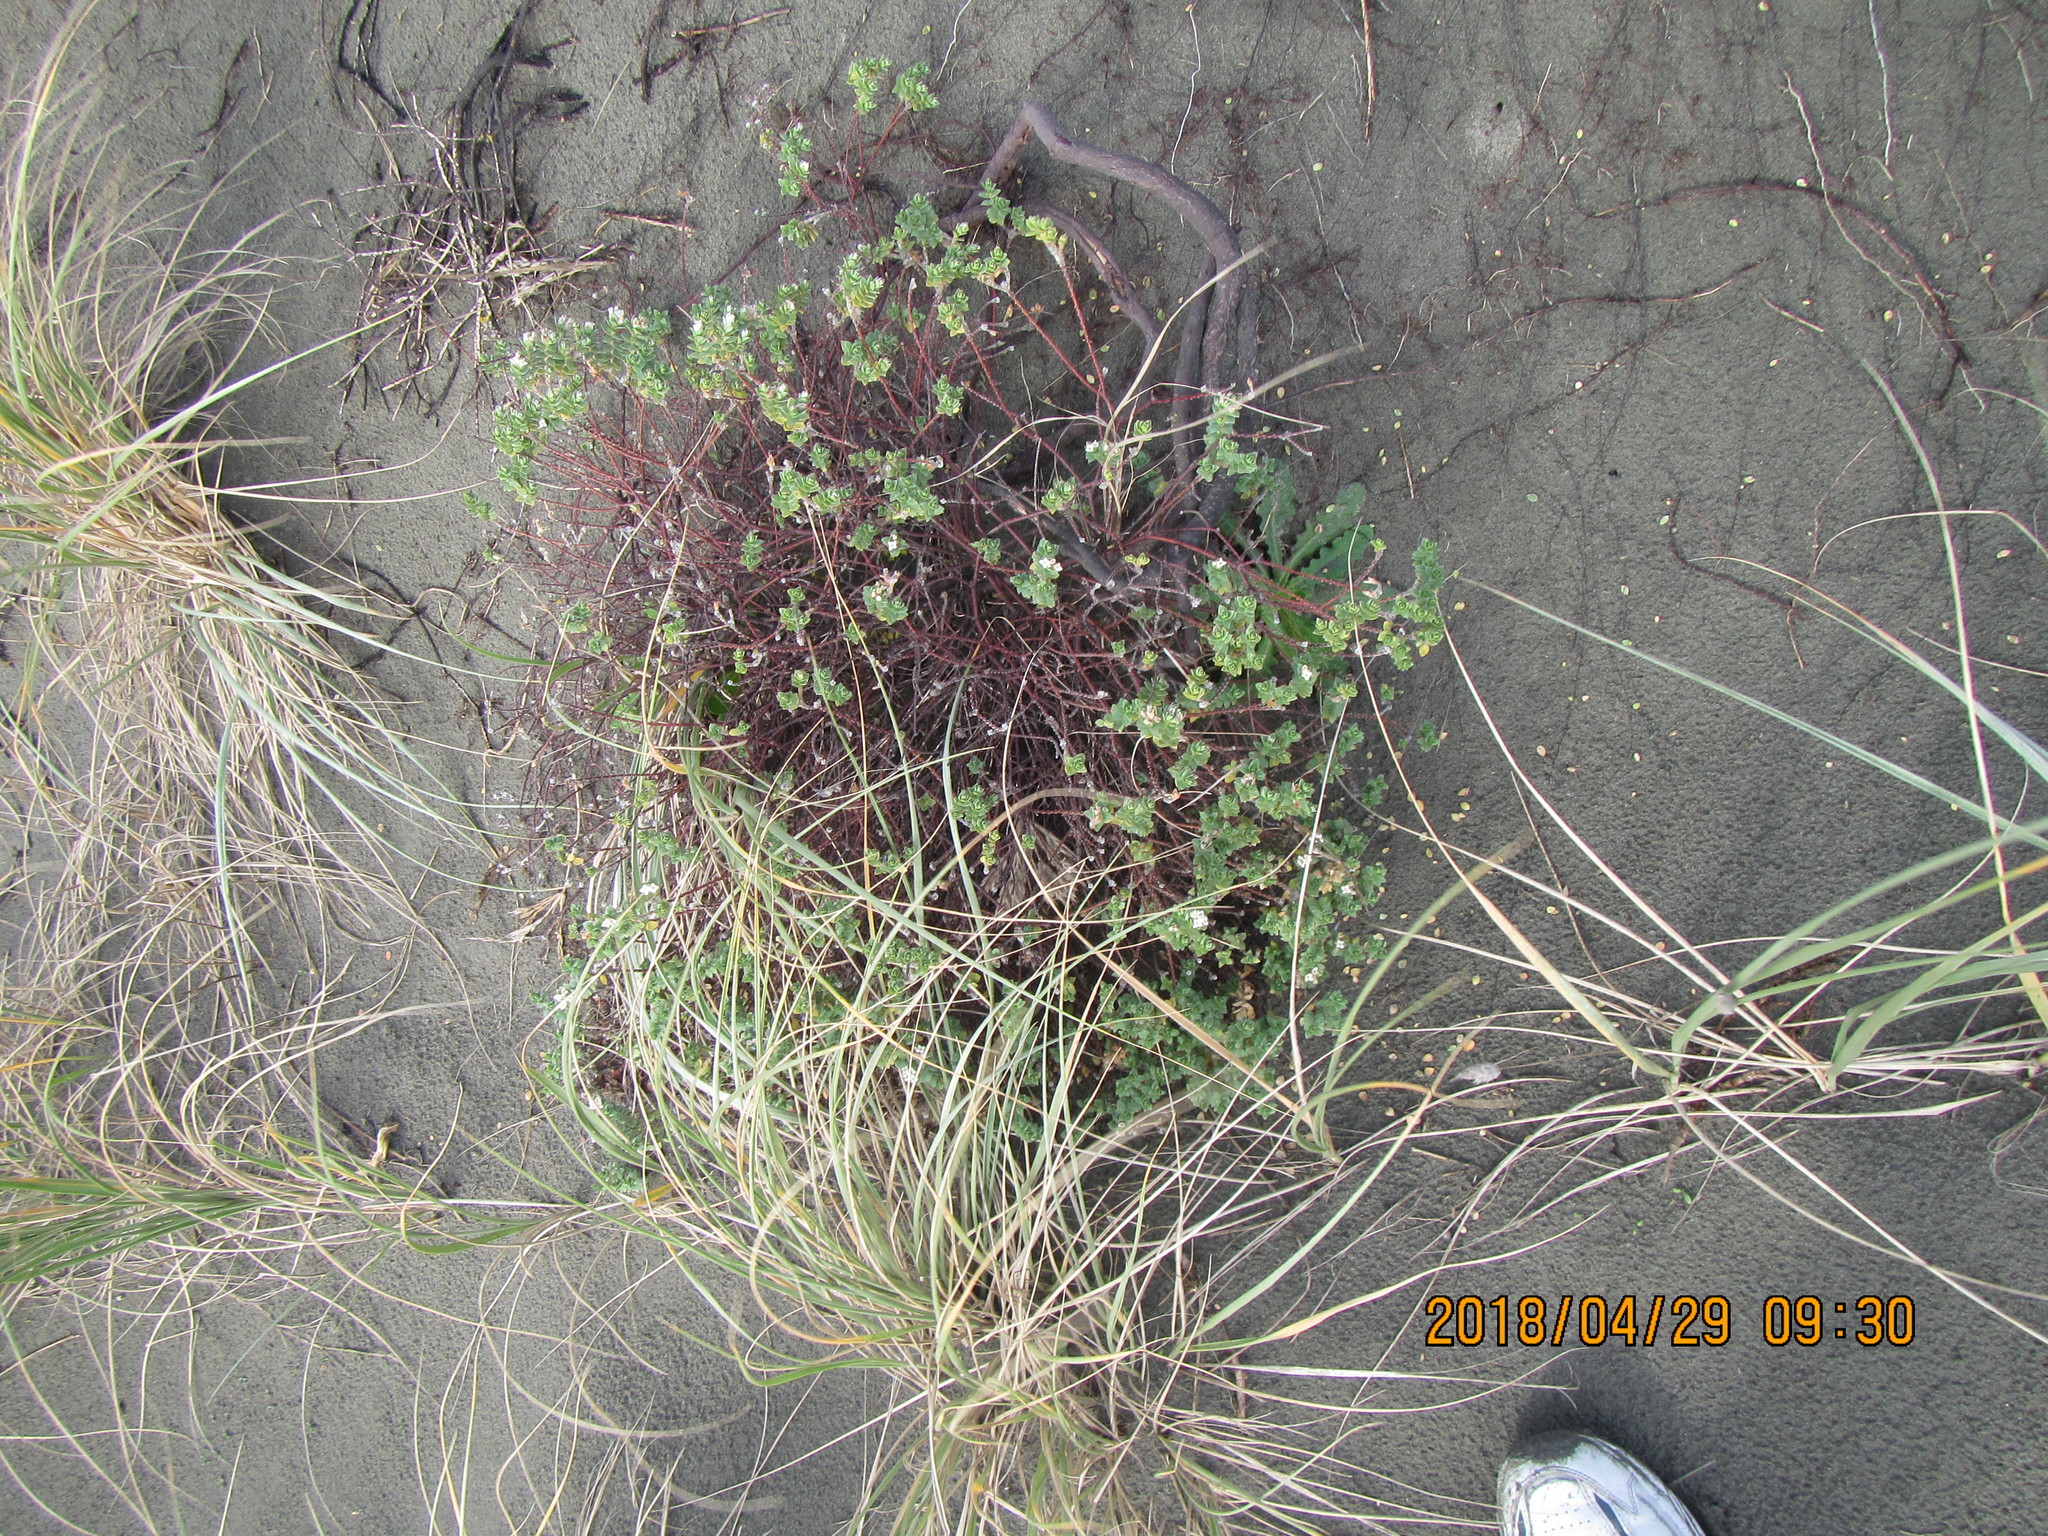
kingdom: Plantae
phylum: Tracheophyta
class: Magnoliopsida
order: Malvales
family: Thymelaeaceae
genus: Pimelea
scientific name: Pimelea villosa
